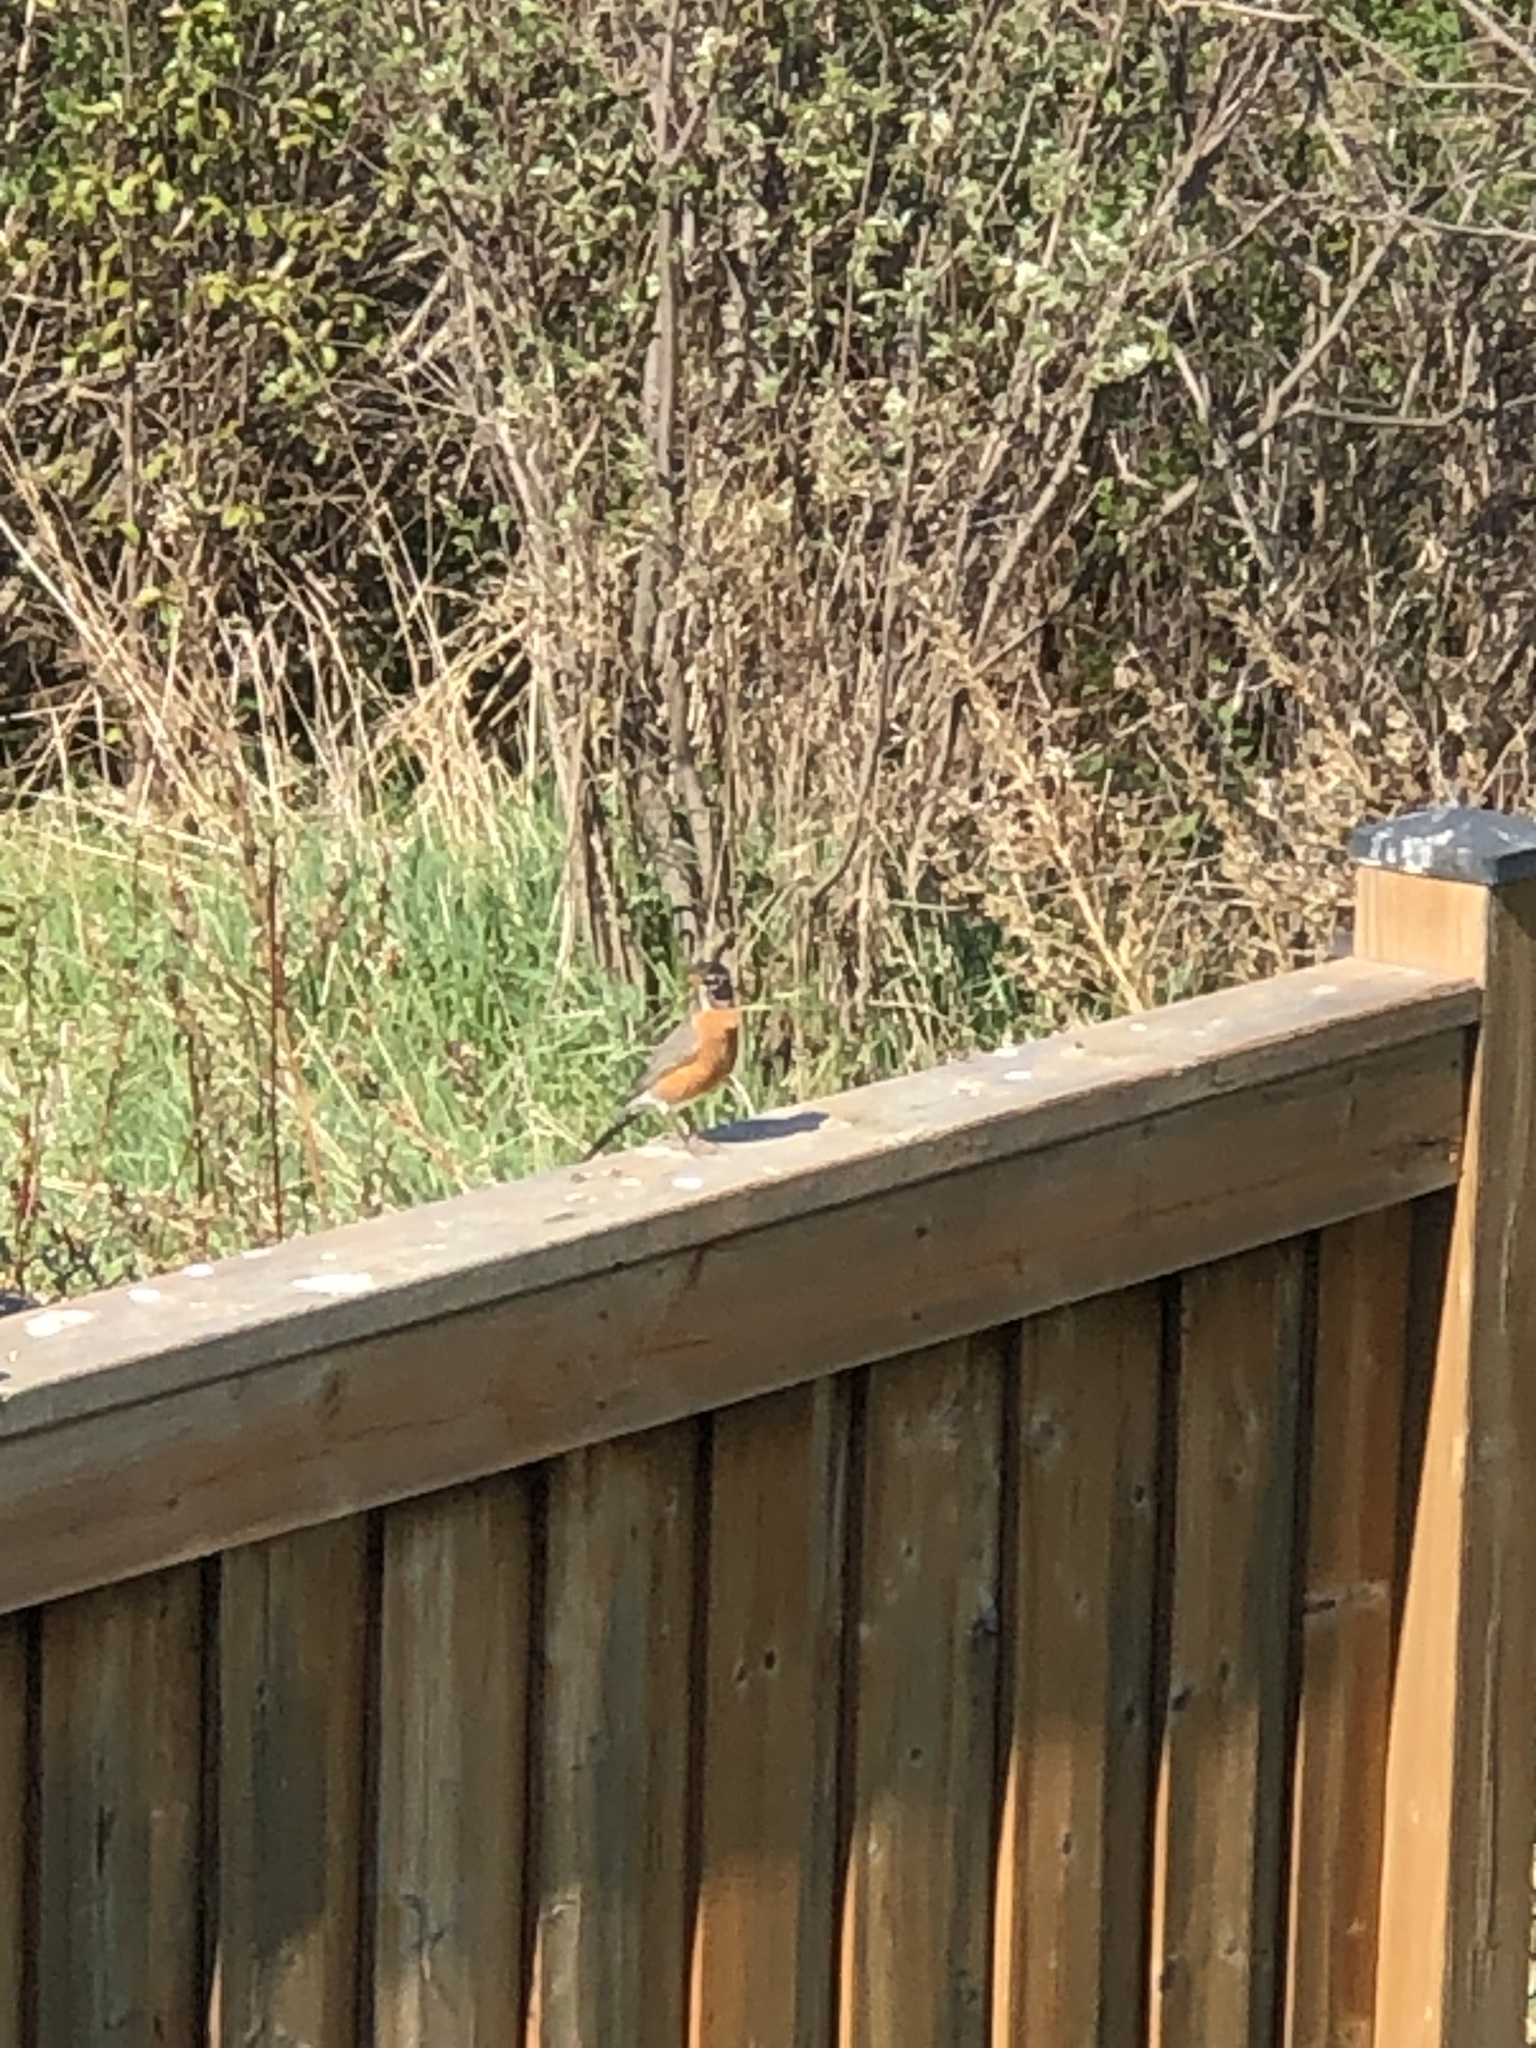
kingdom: Animalia
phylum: Chordata
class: Aves
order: Passeriformes
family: Turdidae
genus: Turdus
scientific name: Turdus migratorius
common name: American robin
